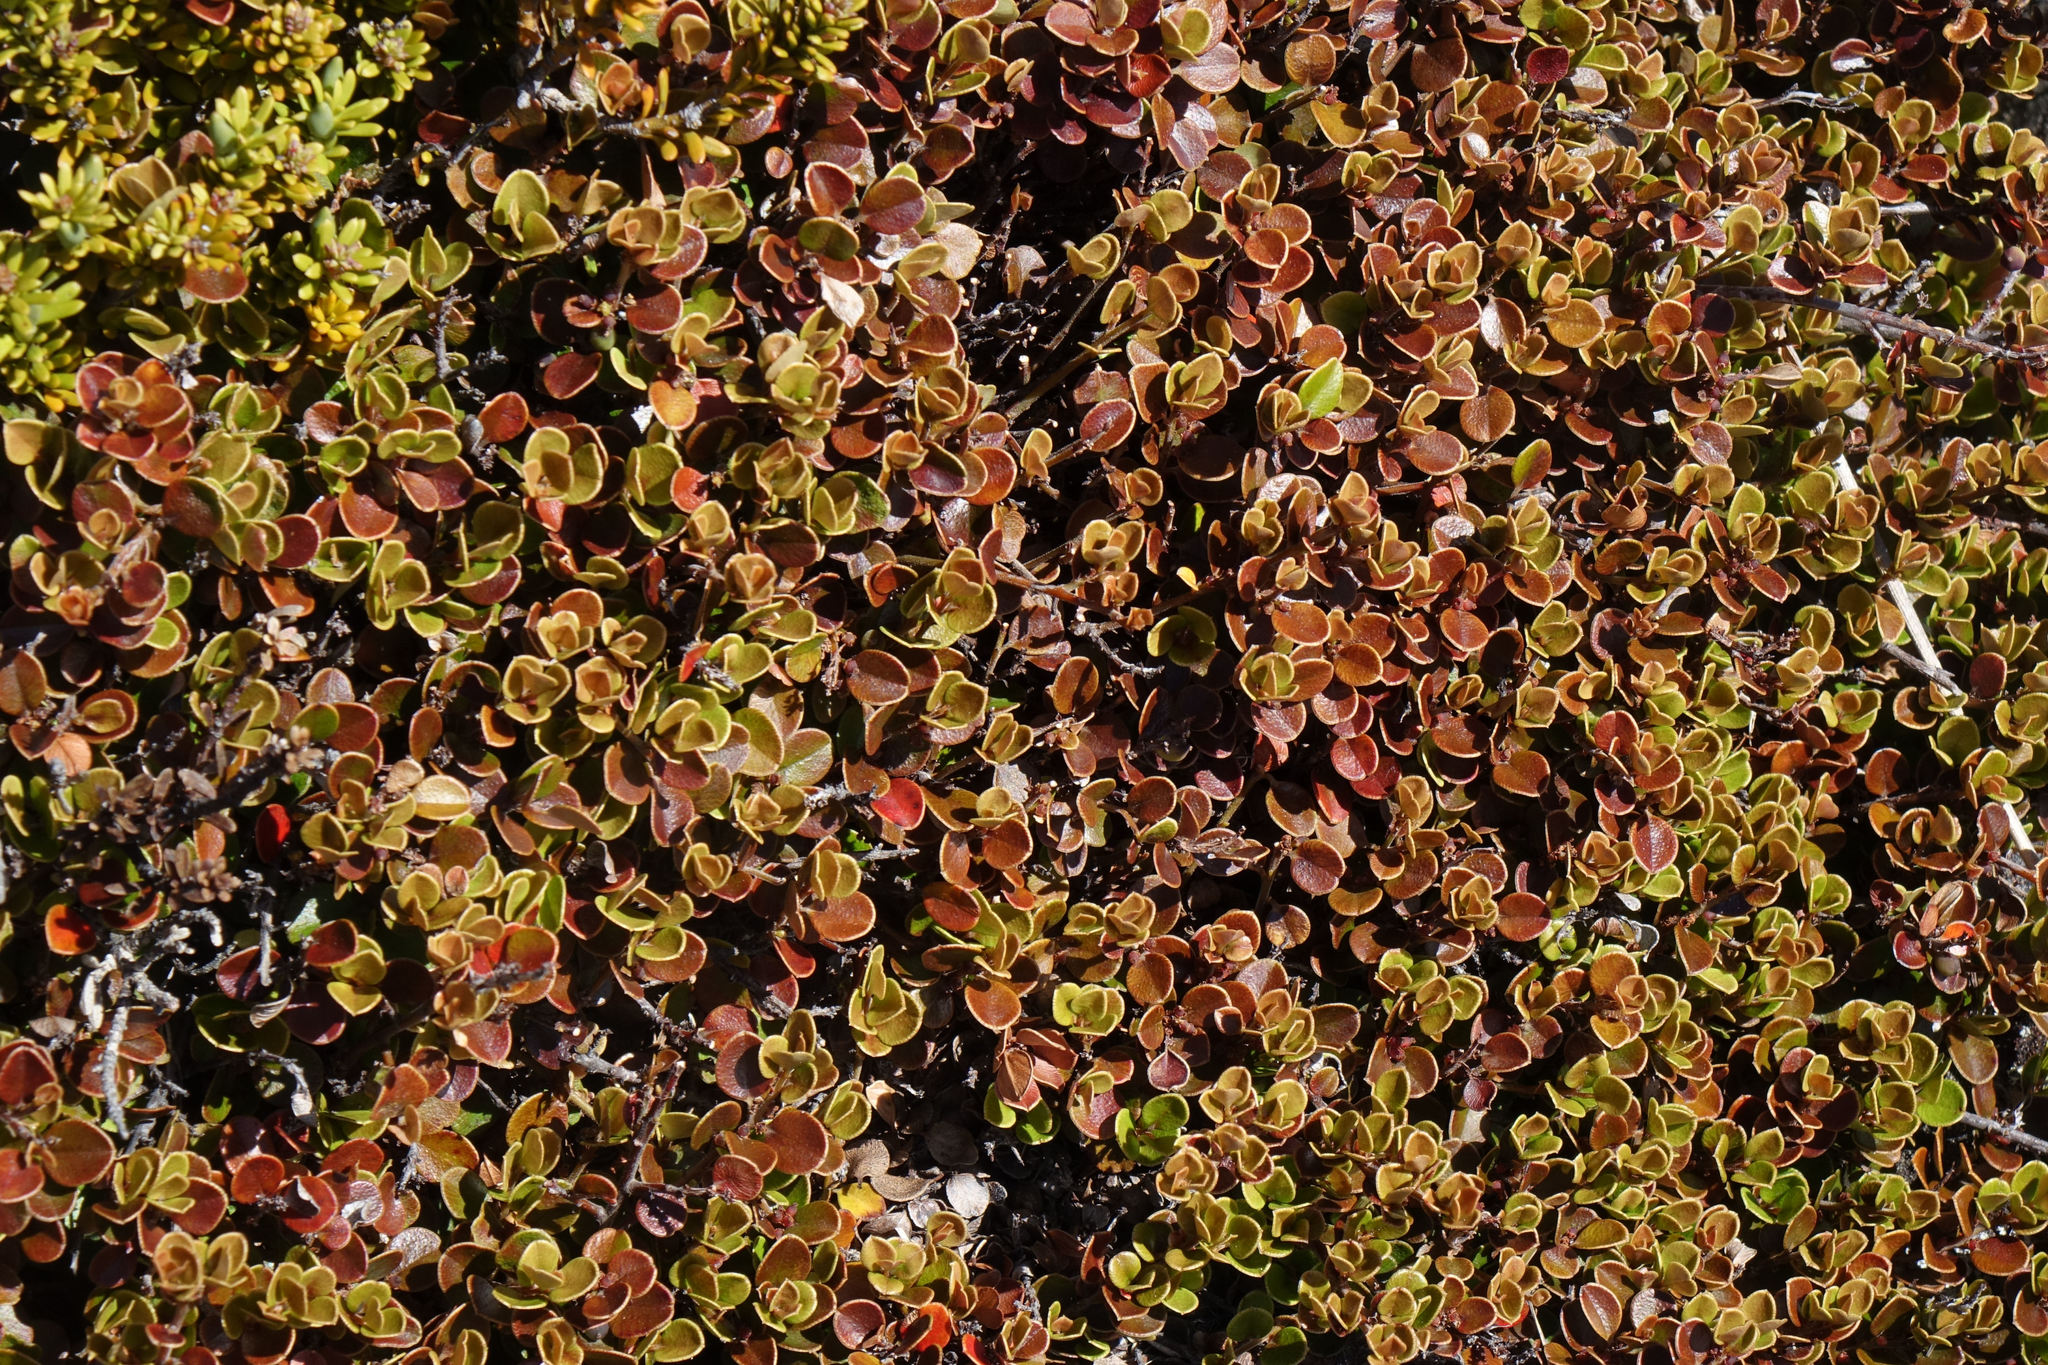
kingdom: Plantae
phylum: Tracheophyta
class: Magnoliopsida
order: Ericales
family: Primulaceae
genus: Myrsine
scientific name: Myrsine nummularia
